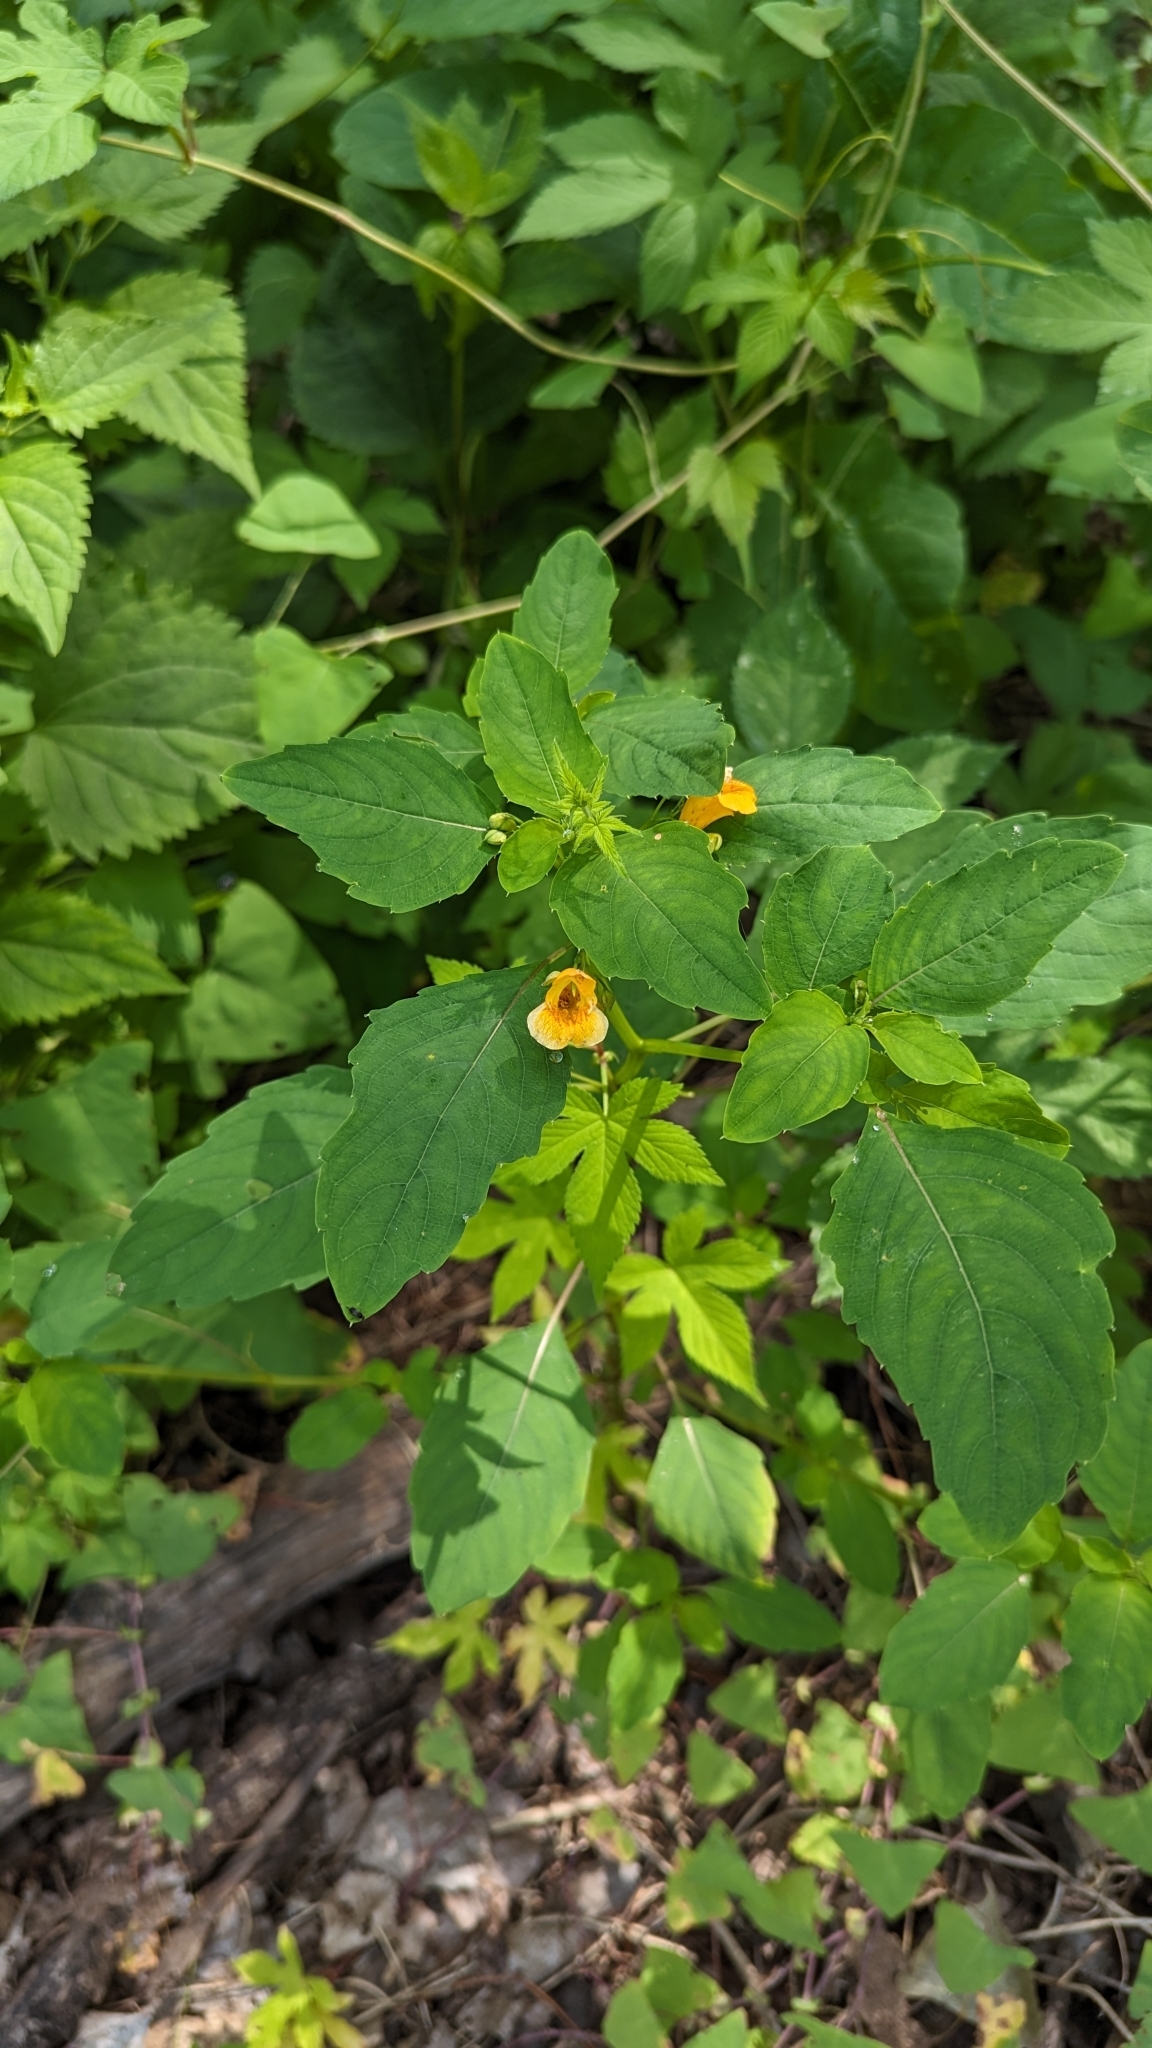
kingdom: Plantae
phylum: Tracheophyta
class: Magnoliopsida
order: Ericales
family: Balsaminaceae
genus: Impatiens
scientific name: Impatiens capensis
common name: Orange balsam
